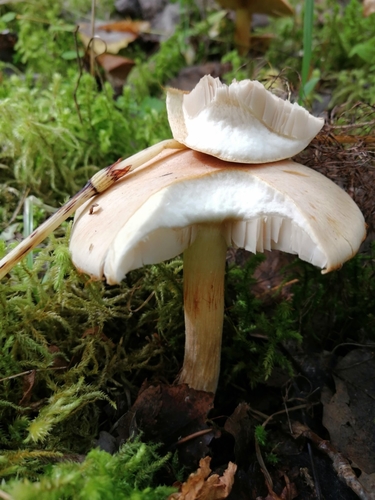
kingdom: Fungi
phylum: Basidiomycota
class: Agaricomycetes
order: Agaricales
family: Tricholomataceae
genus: Leucocortinarius
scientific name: Leucocortinarius bulbiger
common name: White webcap
